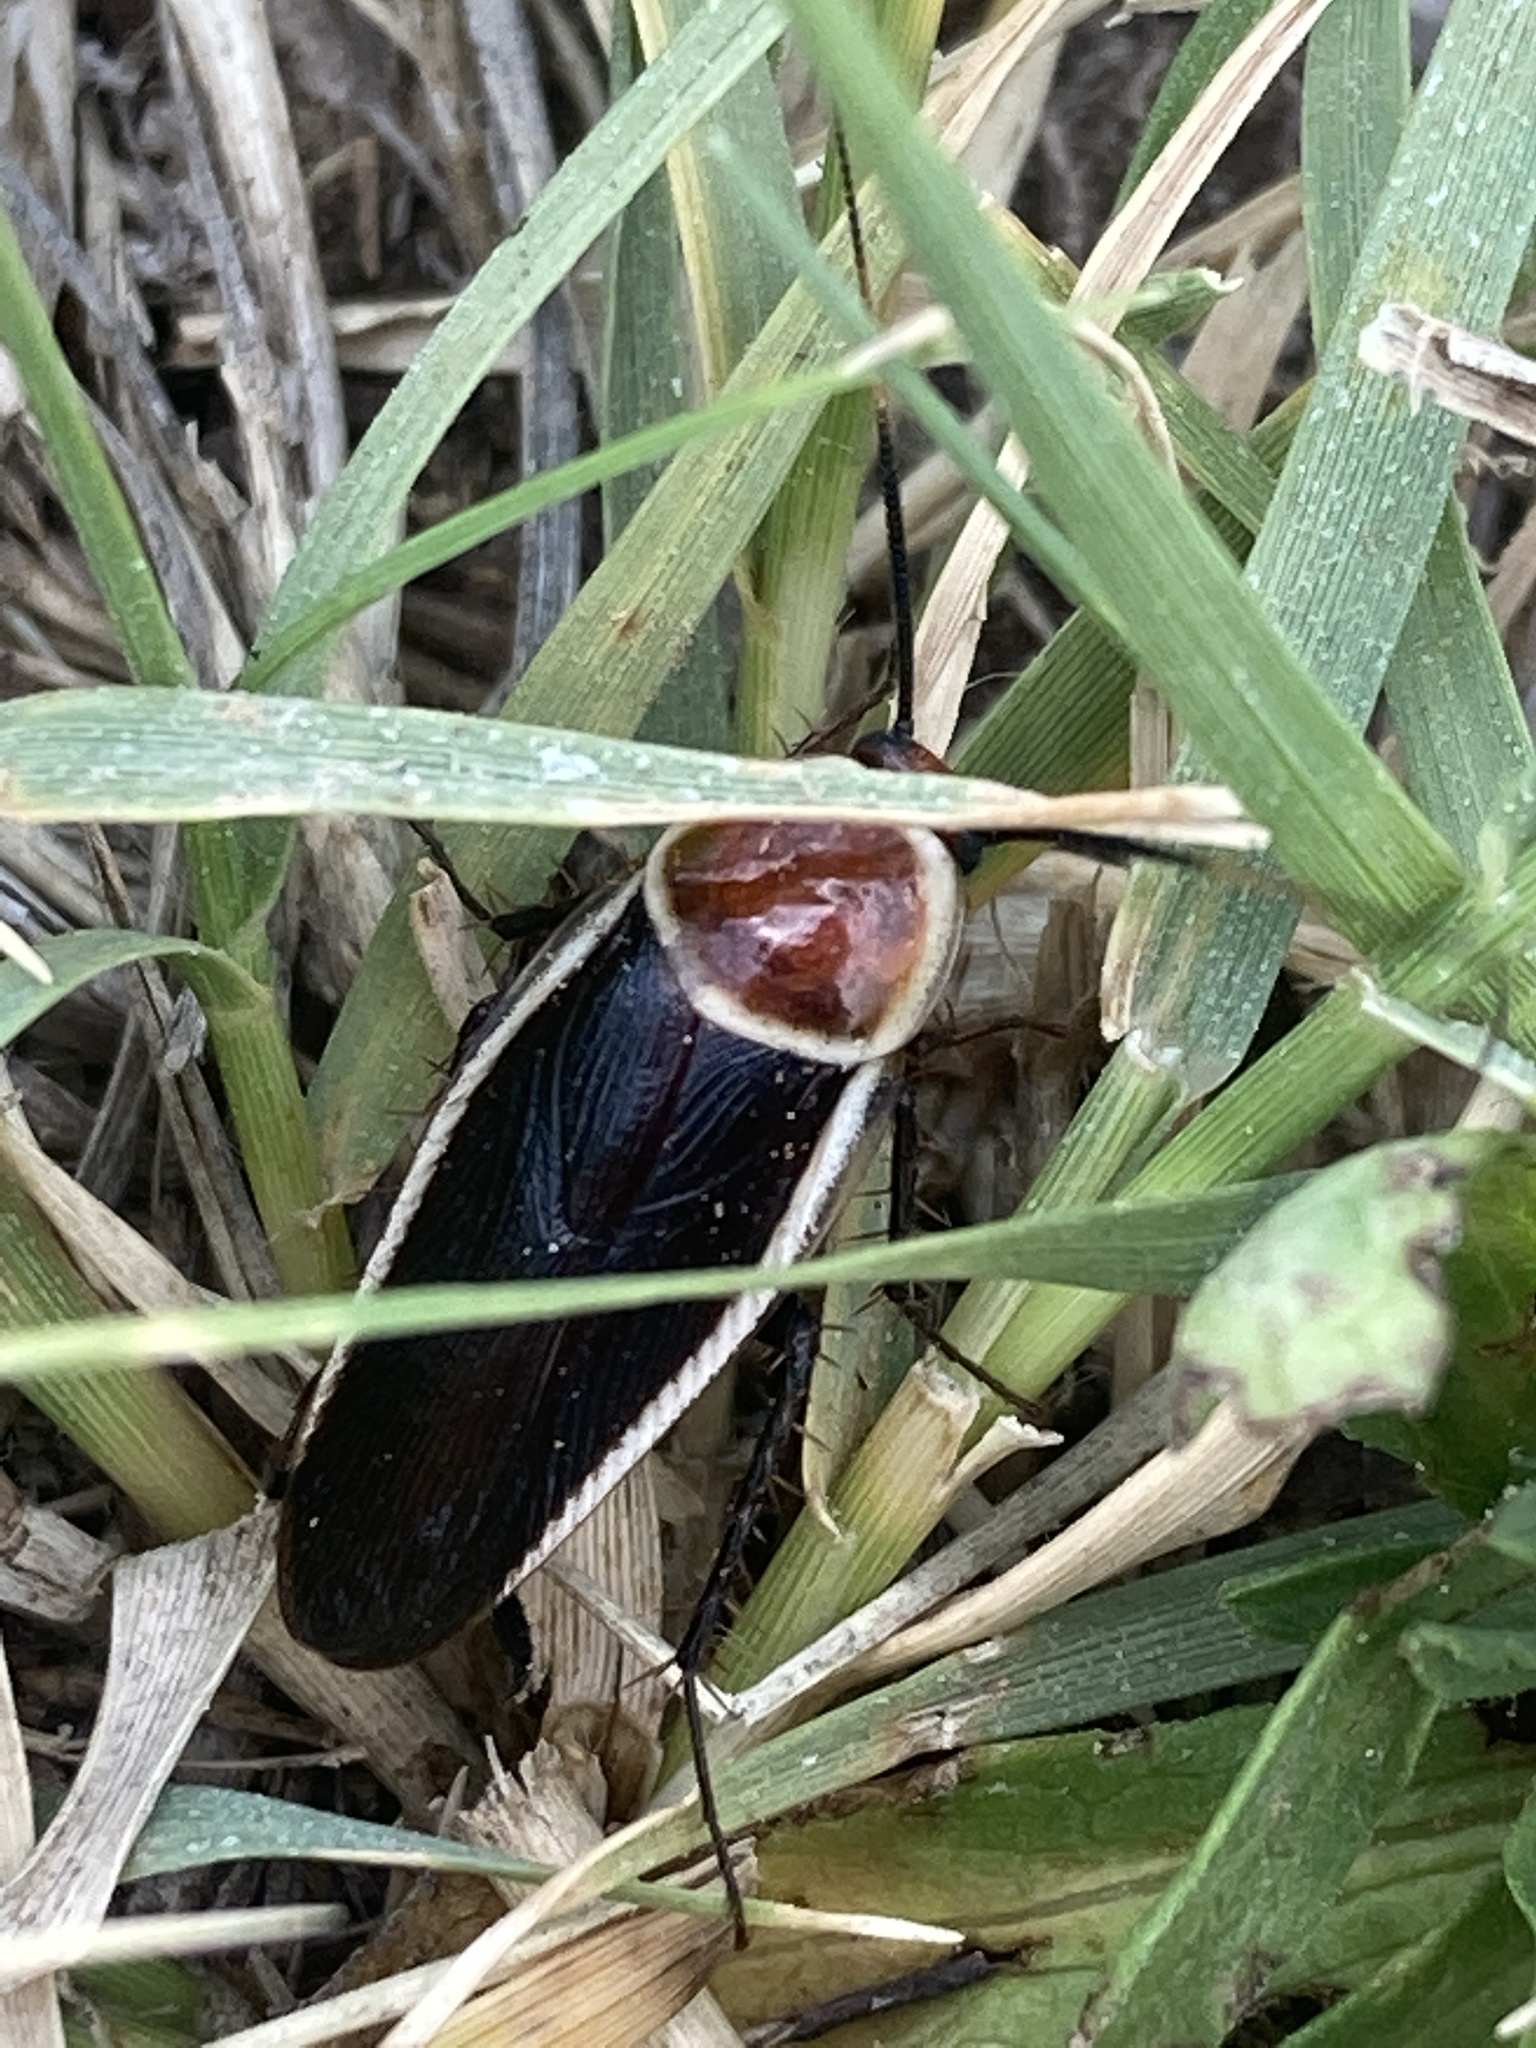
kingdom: Animalia
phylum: Arthropoda
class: Insecta
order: Blattodea
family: Ectobiidae
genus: Pseudomops
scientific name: Pseudomops septentrionalis
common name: Pale-bordered field cockroach
